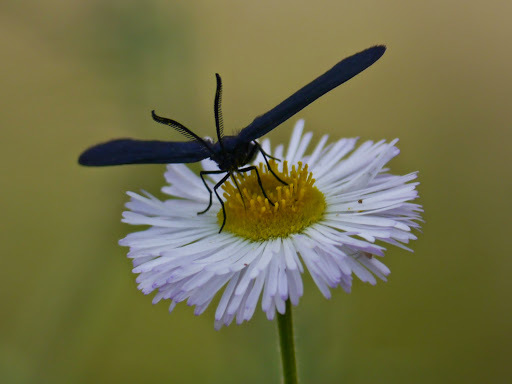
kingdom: Animalia
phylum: Arthropoda
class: Insecta
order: Lepidoptera
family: Zygaenidae
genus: Harrisina
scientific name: Harrisina metallica
